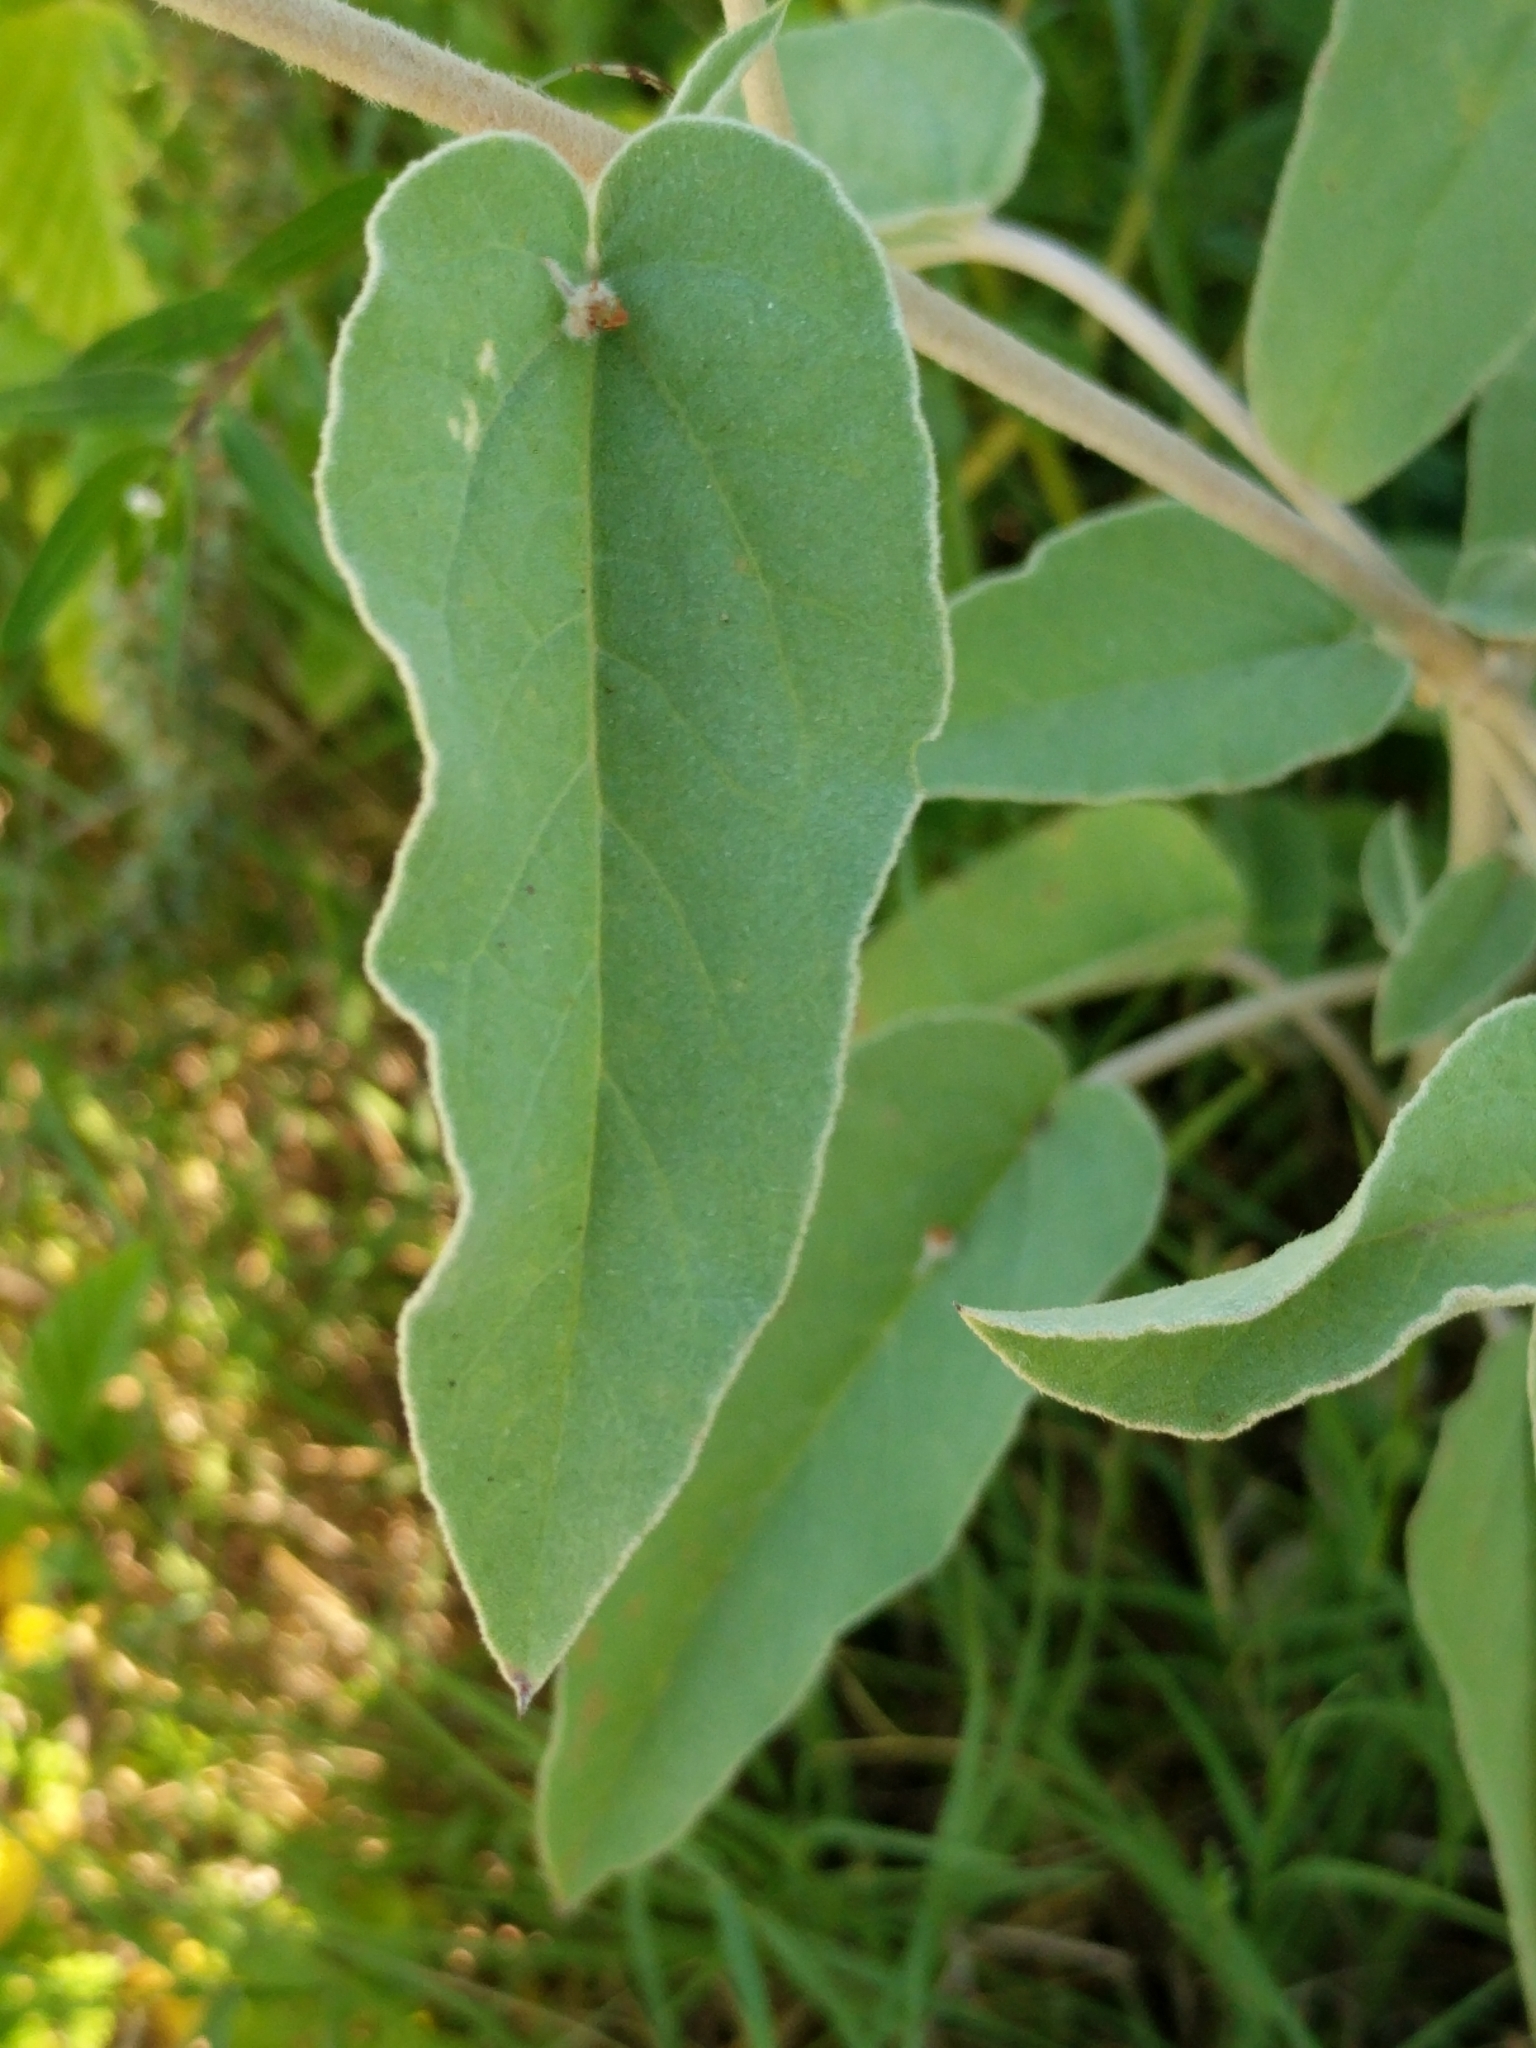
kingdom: Plantae
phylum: Tracheophyta
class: Magnoliopsida
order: Malpighiales
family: Euphorbiaceae
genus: Croton
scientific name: Croton lindheimeri
